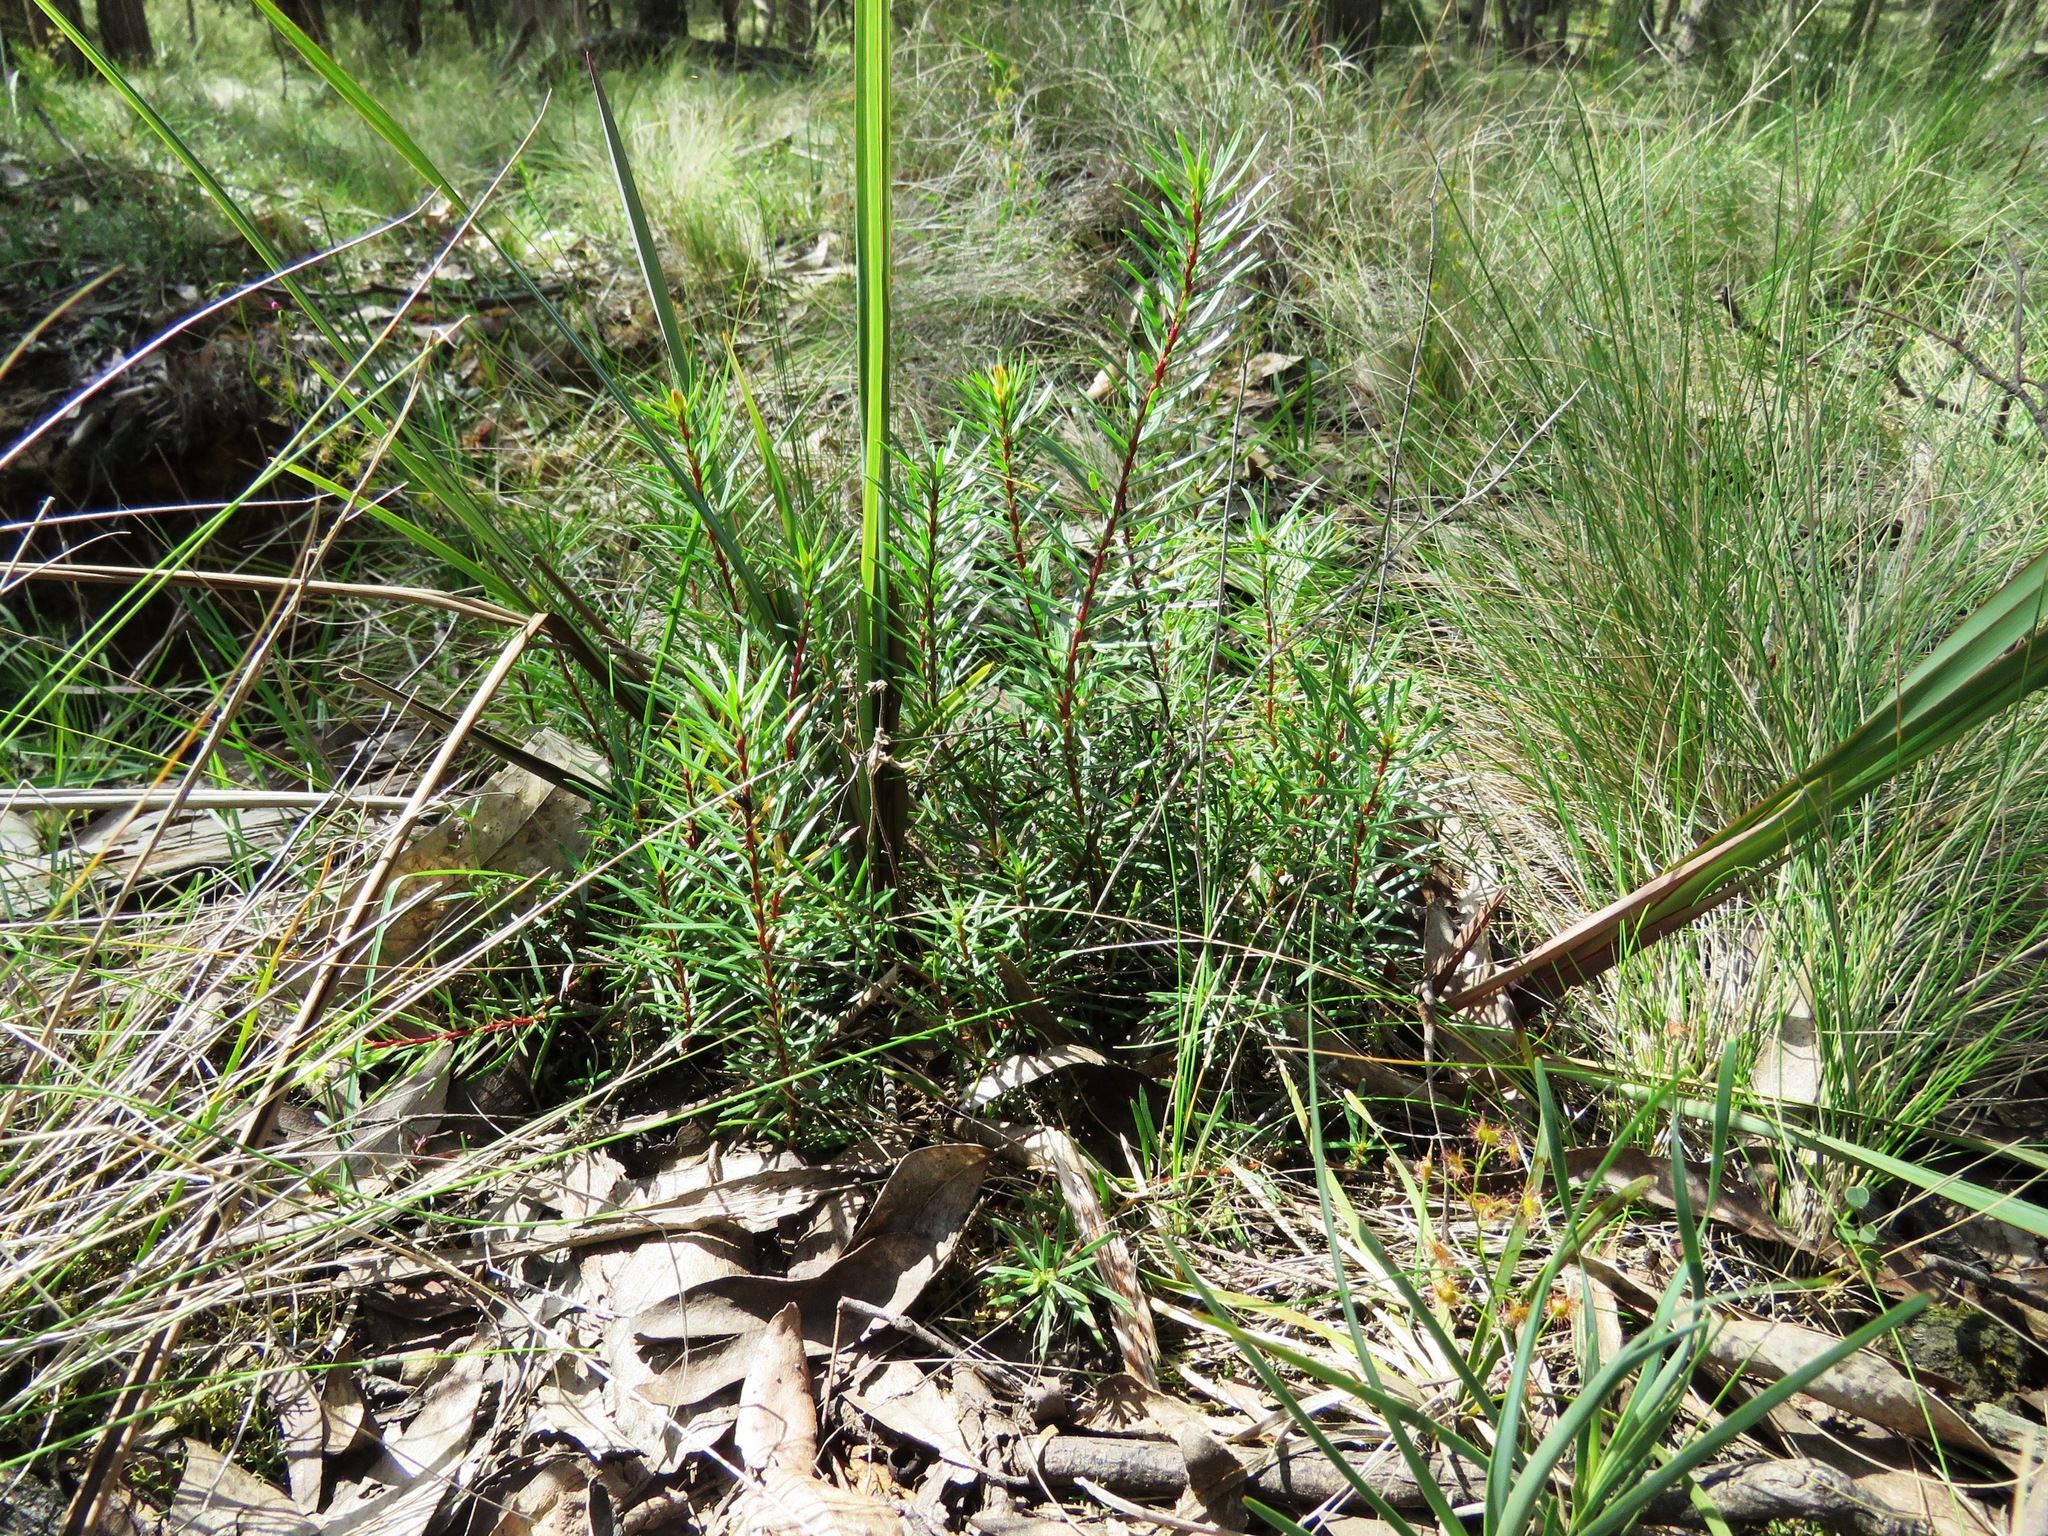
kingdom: Plantae
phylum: Tracheophyta
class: Magnoliopsida
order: Proteales
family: Proteaceae
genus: Persoonia
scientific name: Persoonia chamaepeuce
